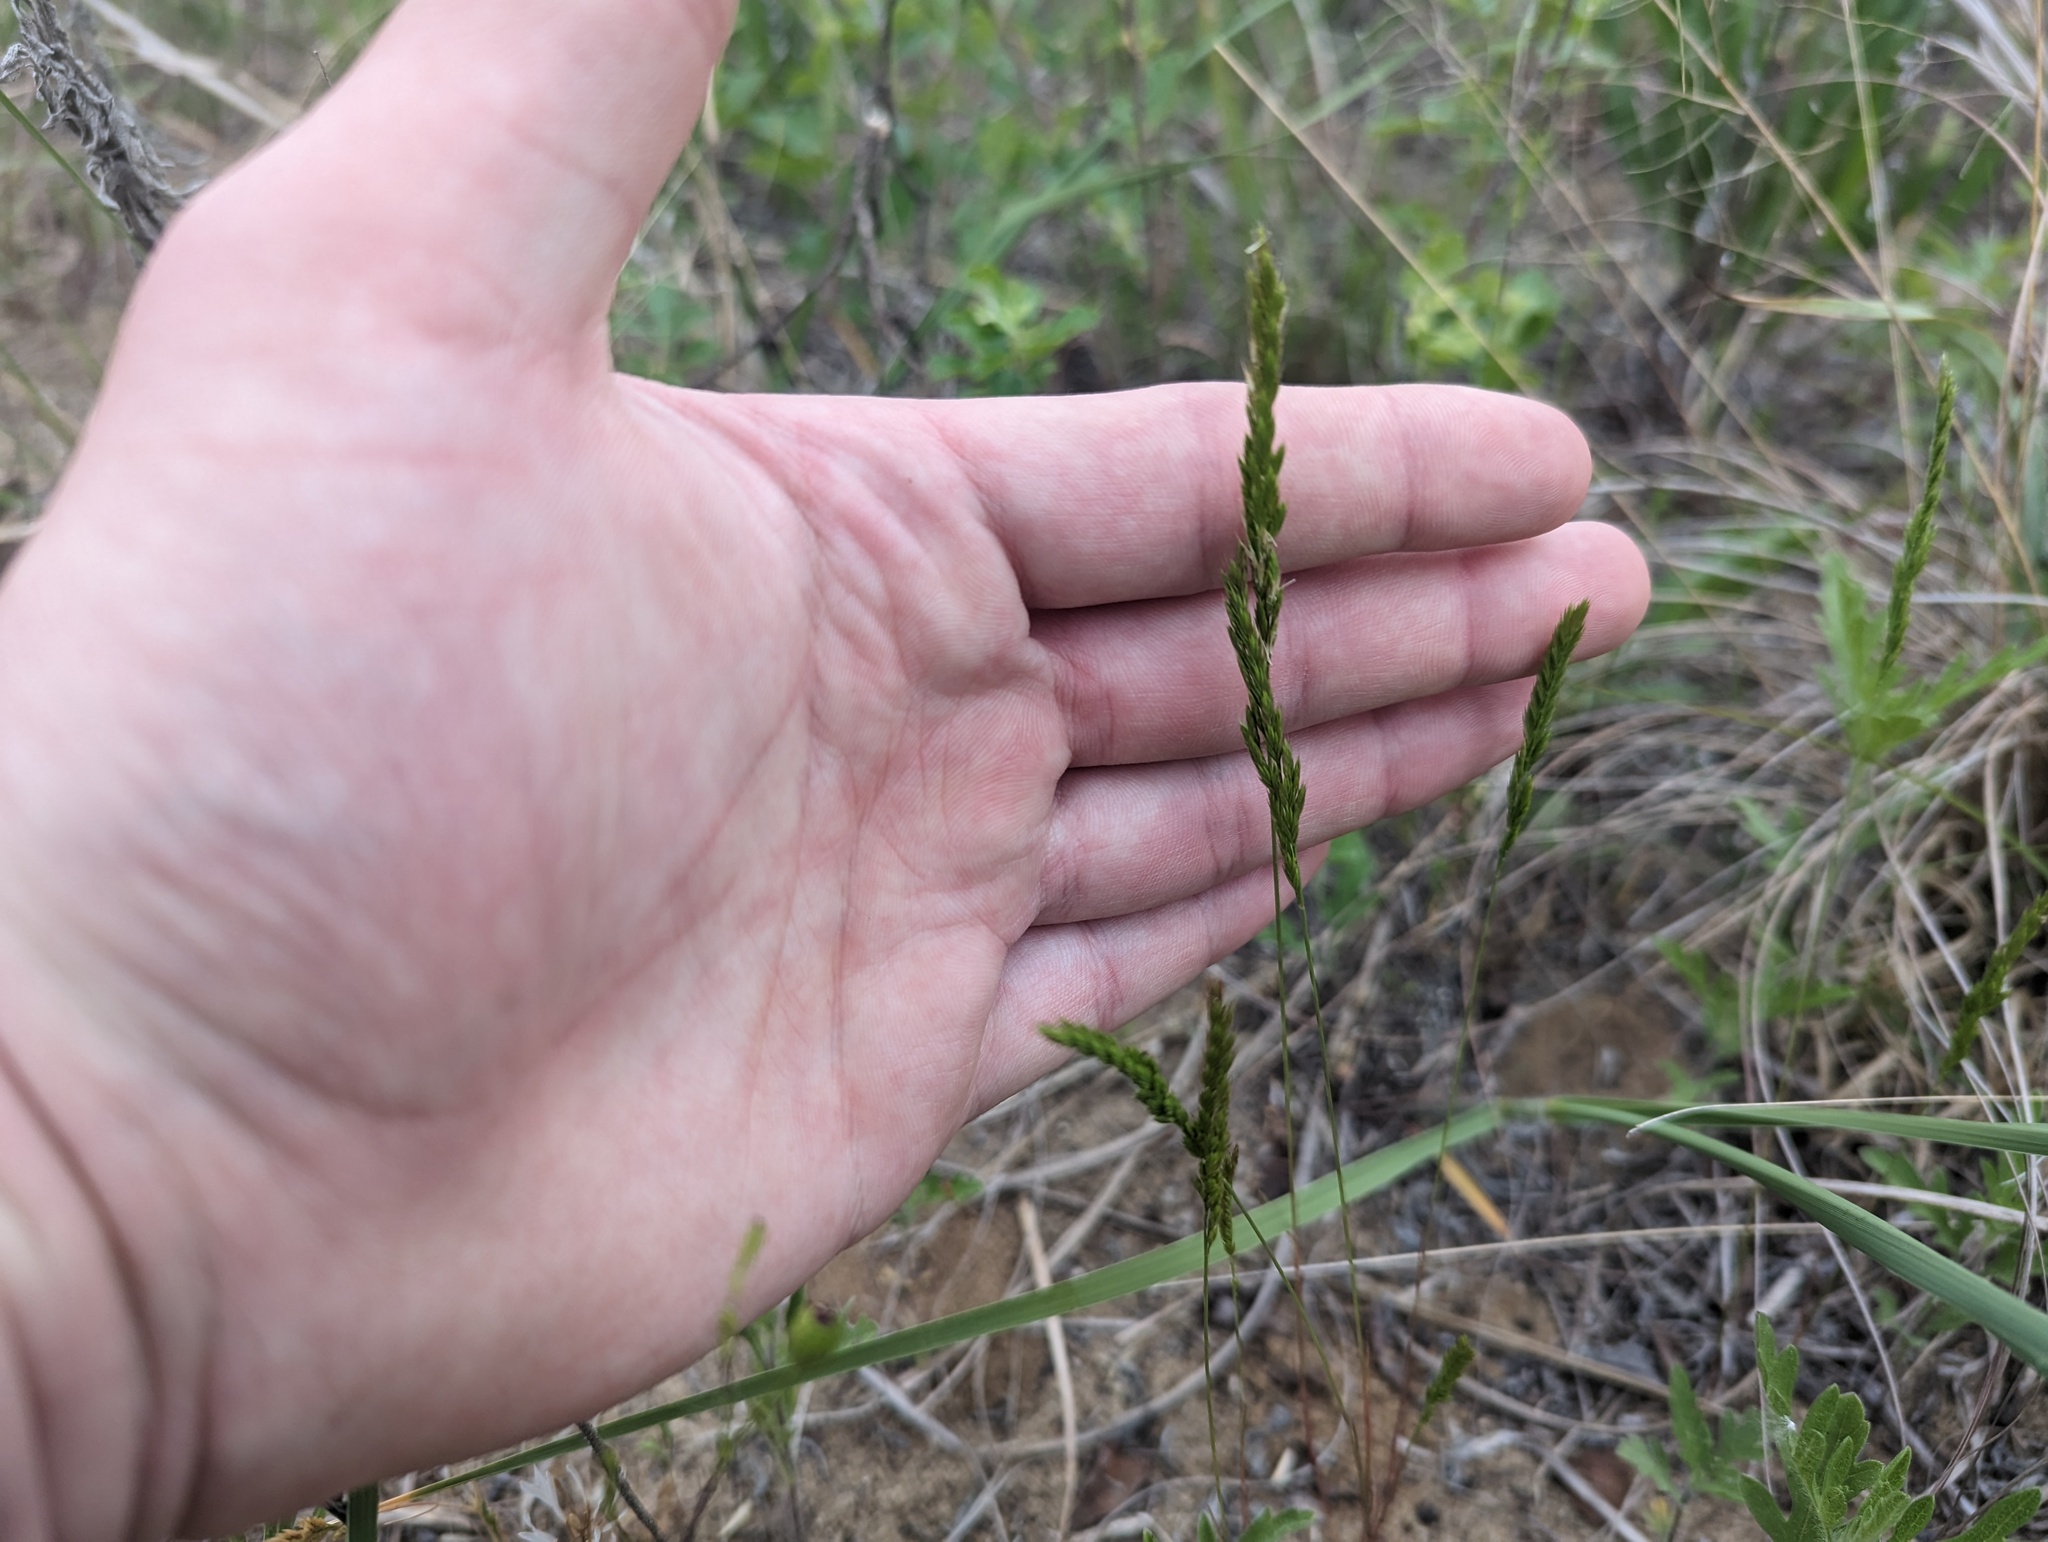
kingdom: Plantae
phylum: Tracheophyta
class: Liliopsida
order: Poales
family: Poaceae
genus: Festuca
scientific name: Festuca octoflora
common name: Sixweeks grass
